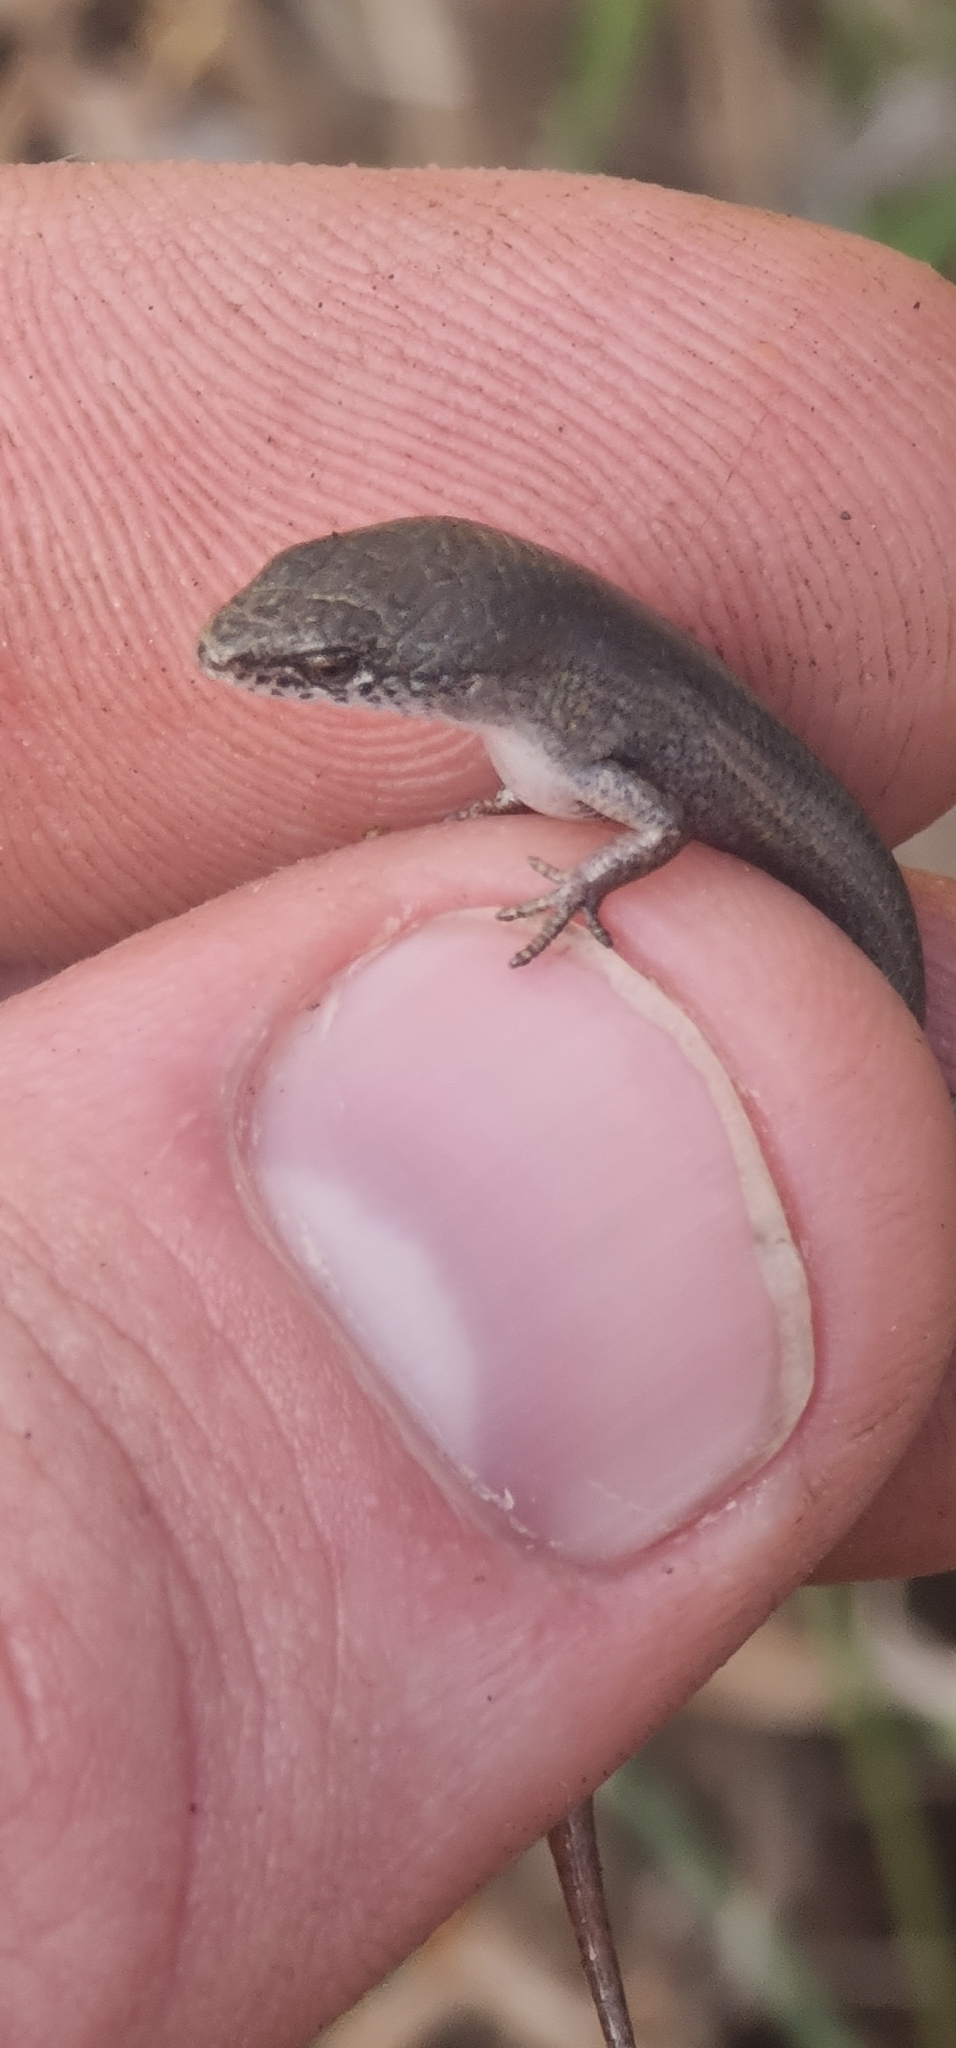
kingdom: Animalia
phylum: Chordata
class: Squamata
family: Scincidae
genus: Lygisaurus
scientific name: Lygisaurus foliorum
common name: Rainbow-skink
